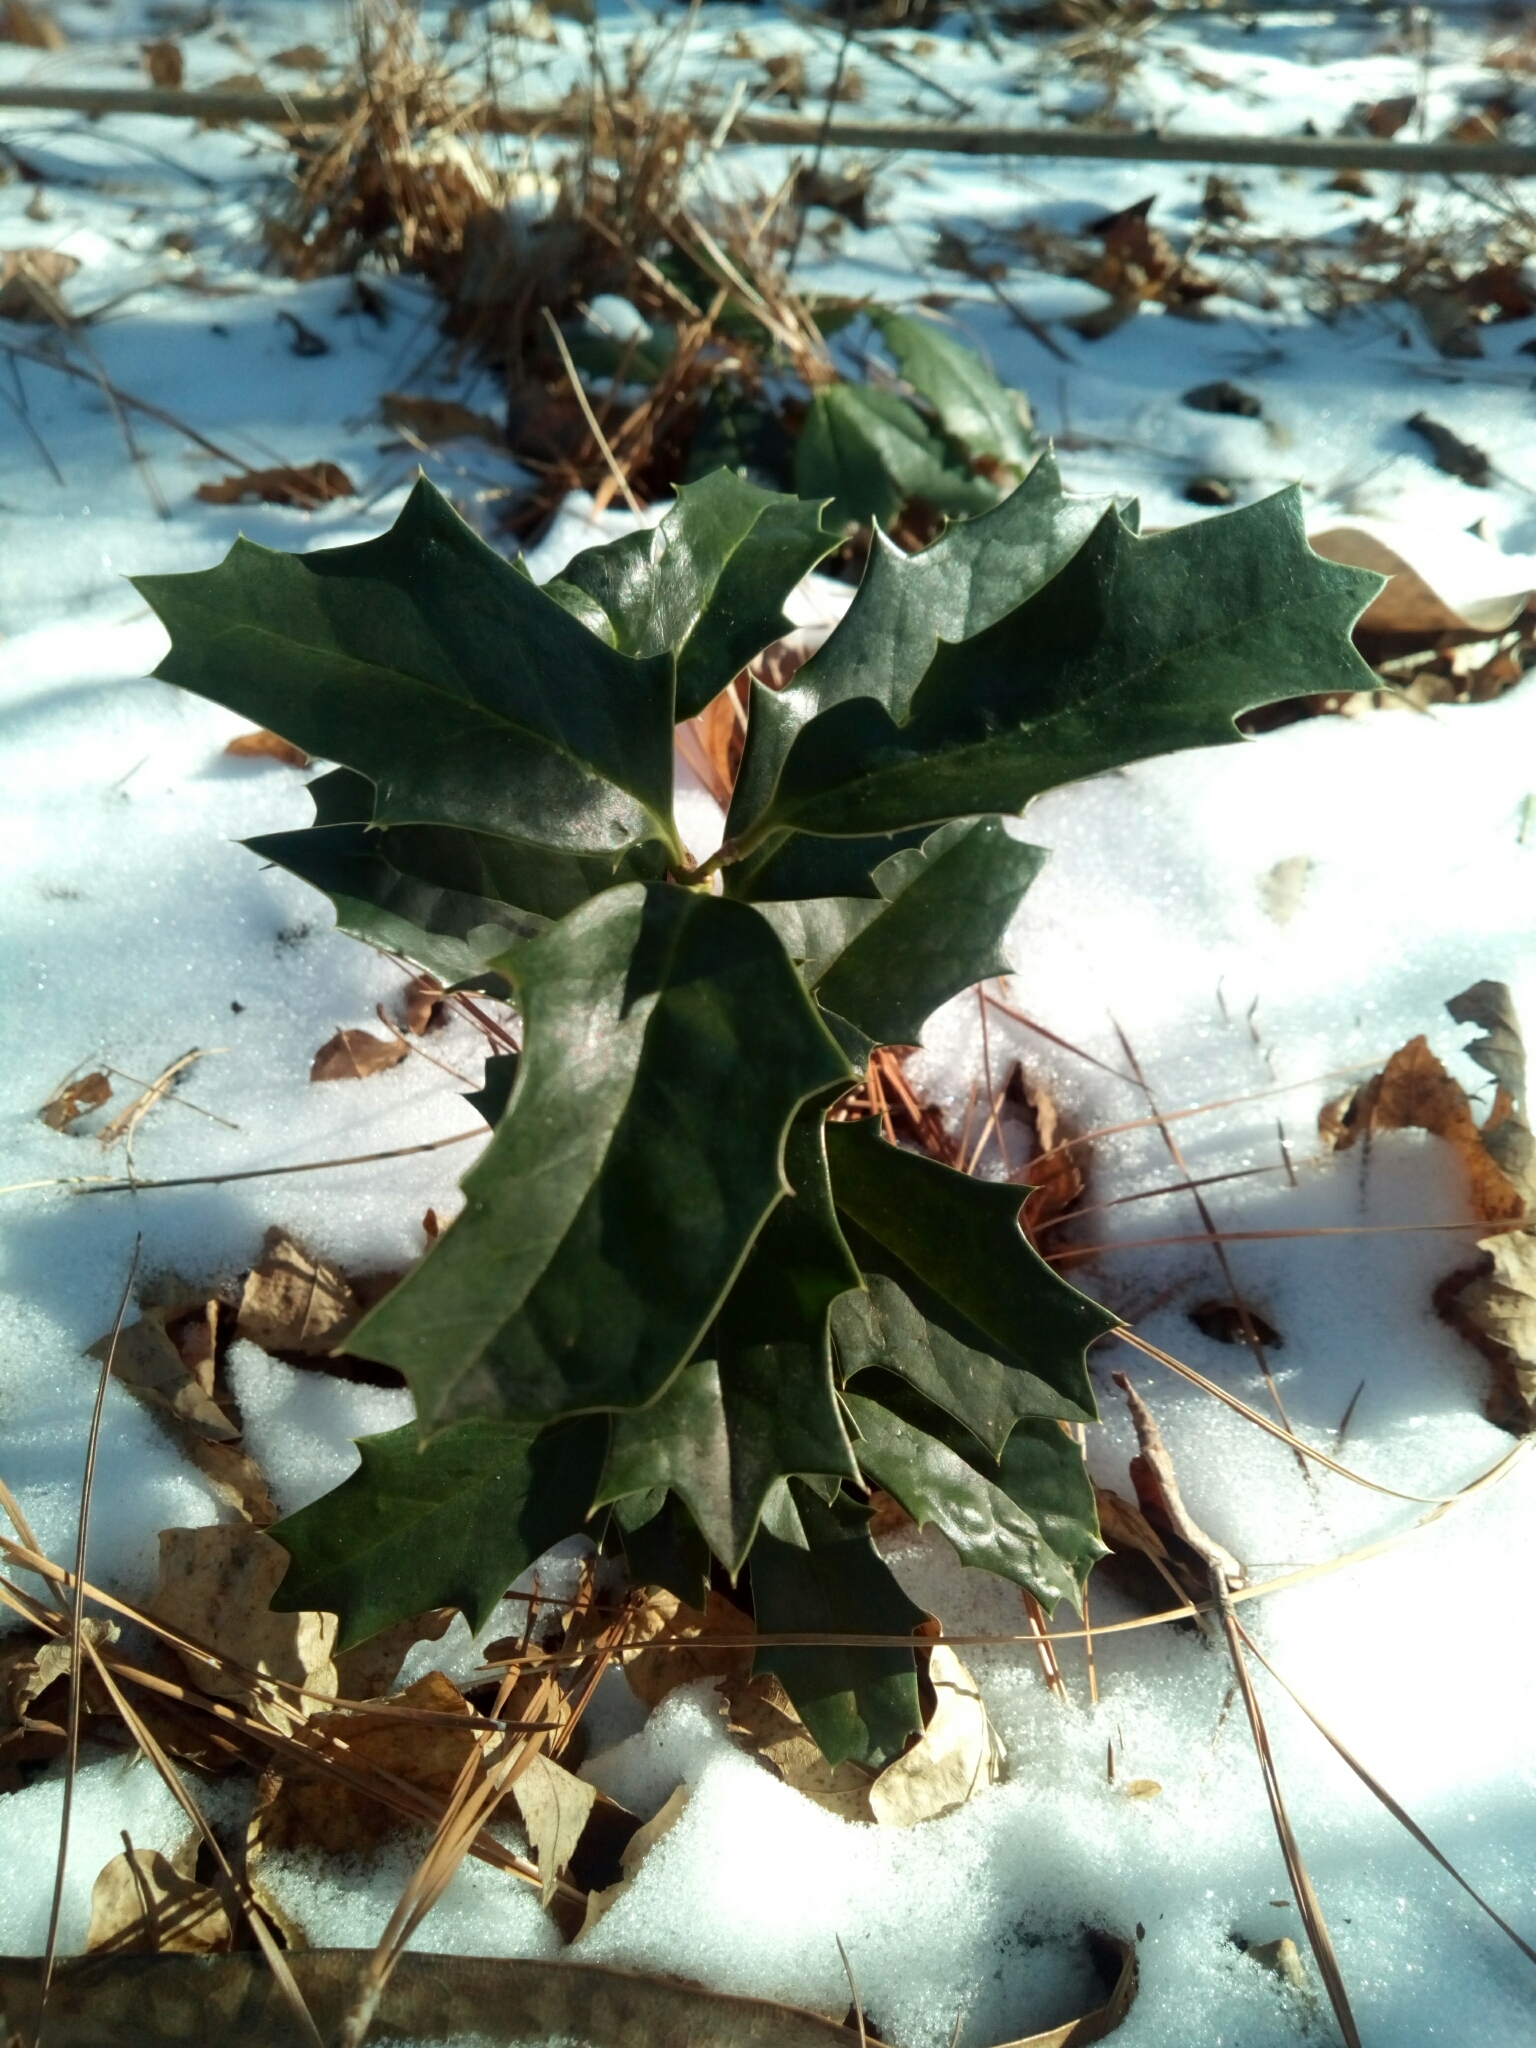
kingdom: Plantae
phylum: Tracheophyta
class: Magnoliopsida
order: Aquifoliales
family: Aquifoliaceae
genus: Ilex
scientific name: Ilex opaca
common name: American holly
